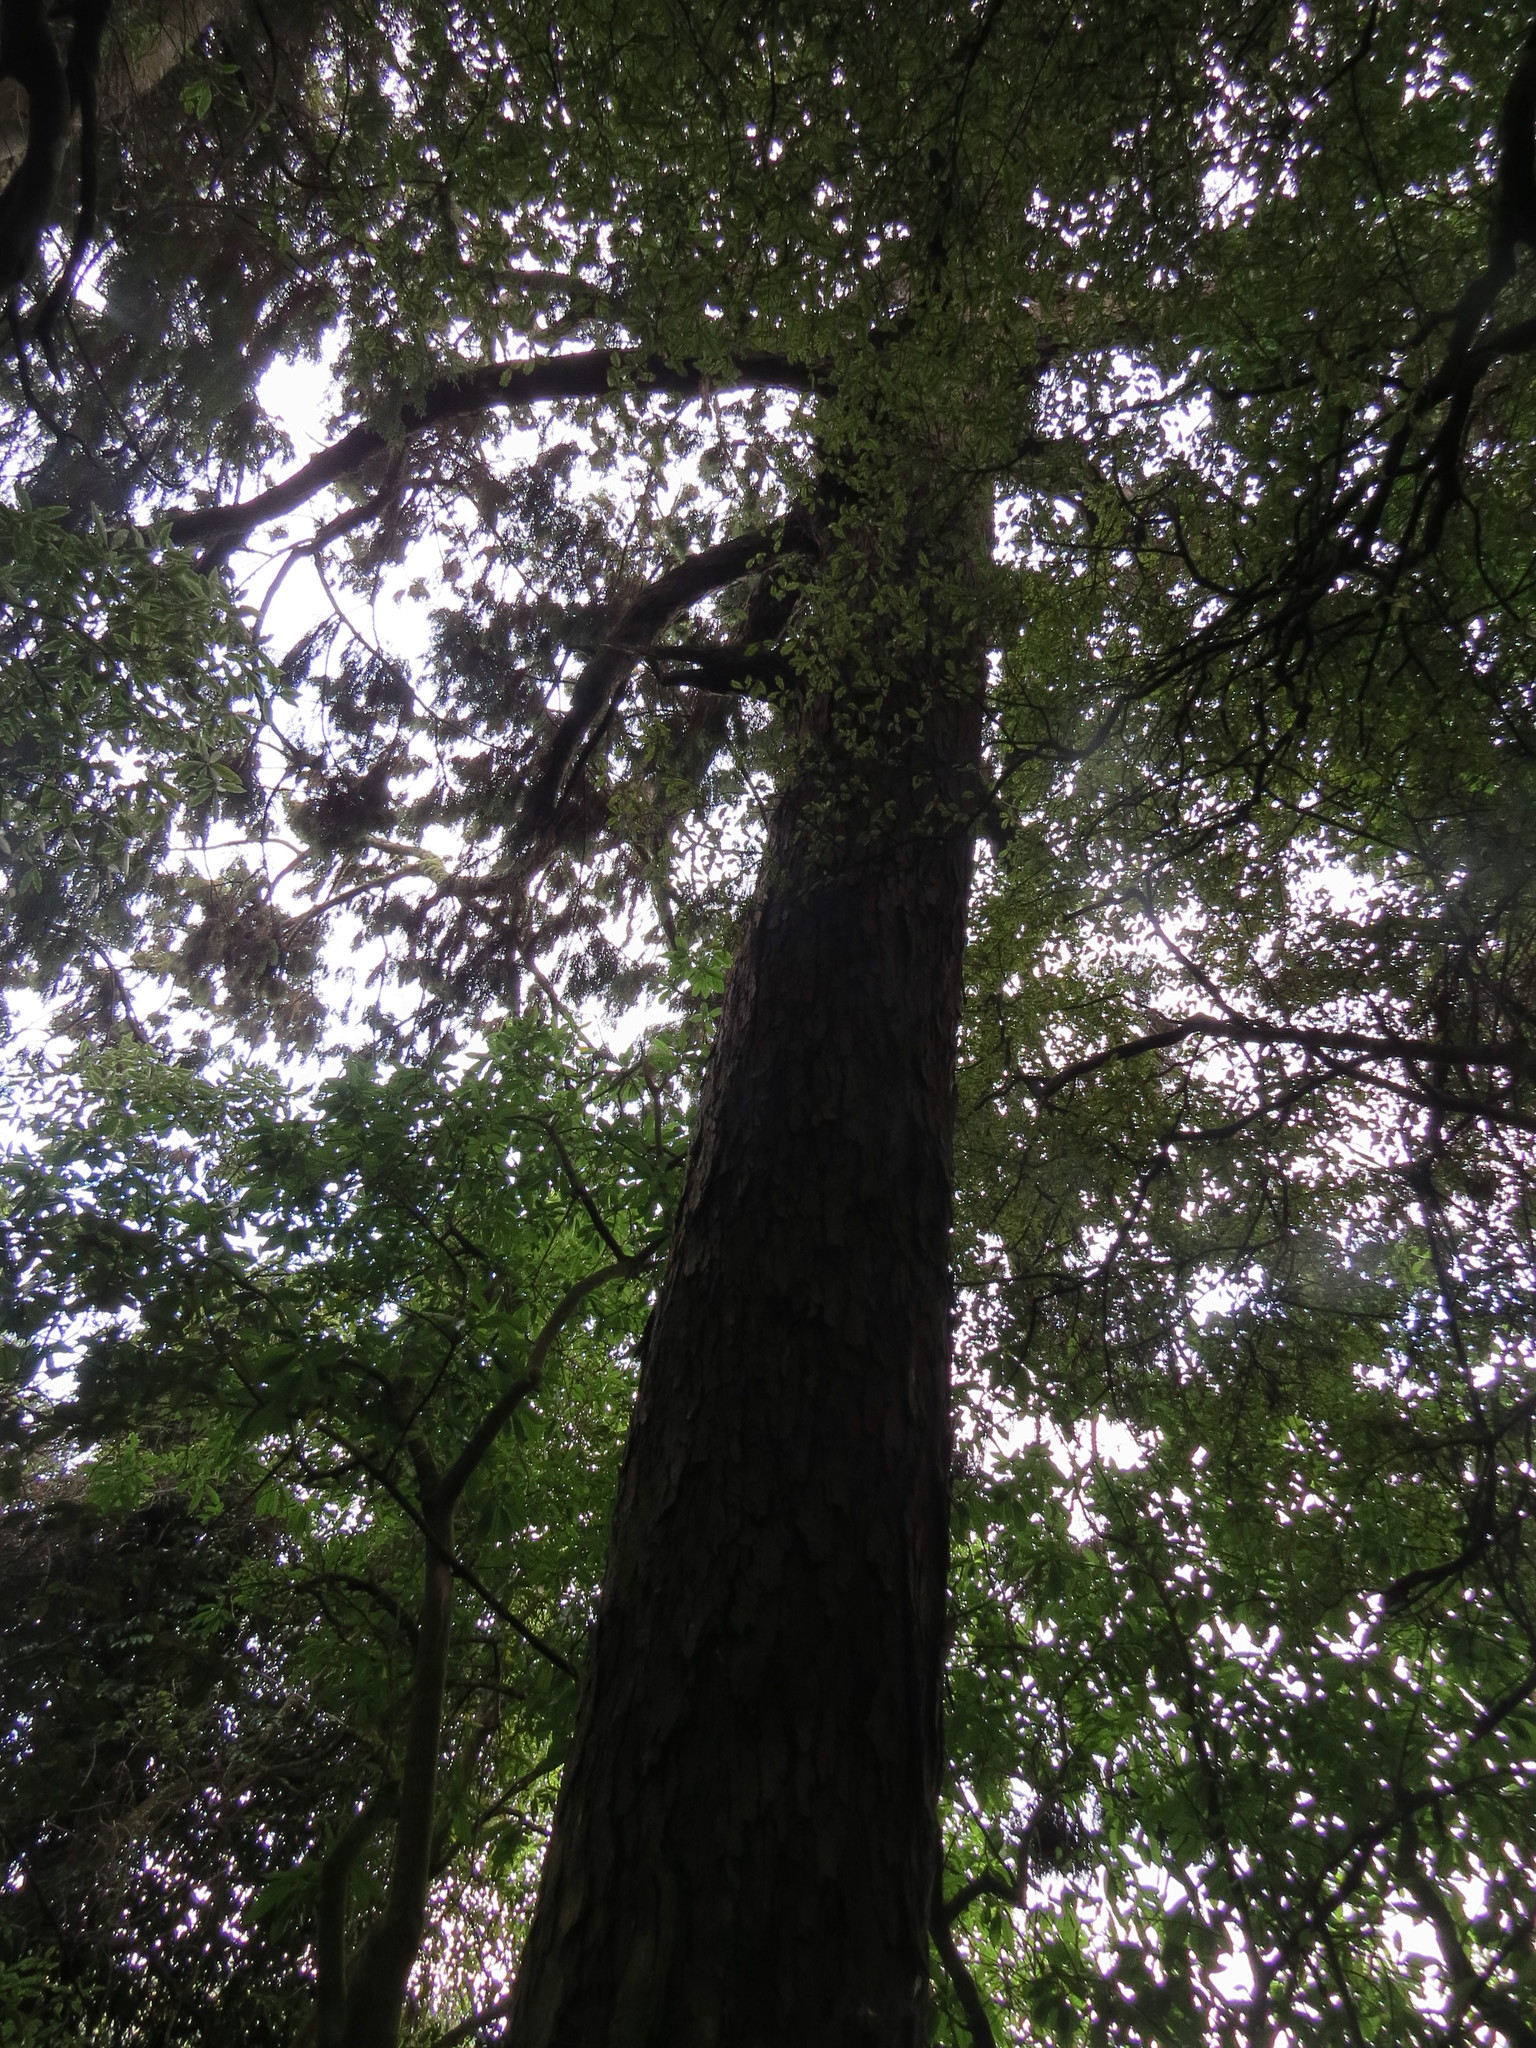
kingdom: Plantae
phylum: Tracheophyta
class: Pinopsida
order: Pinales
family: Podocarpaceae
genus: Dacrydium
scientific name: Dacrydium cupressinum
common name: Red pine
